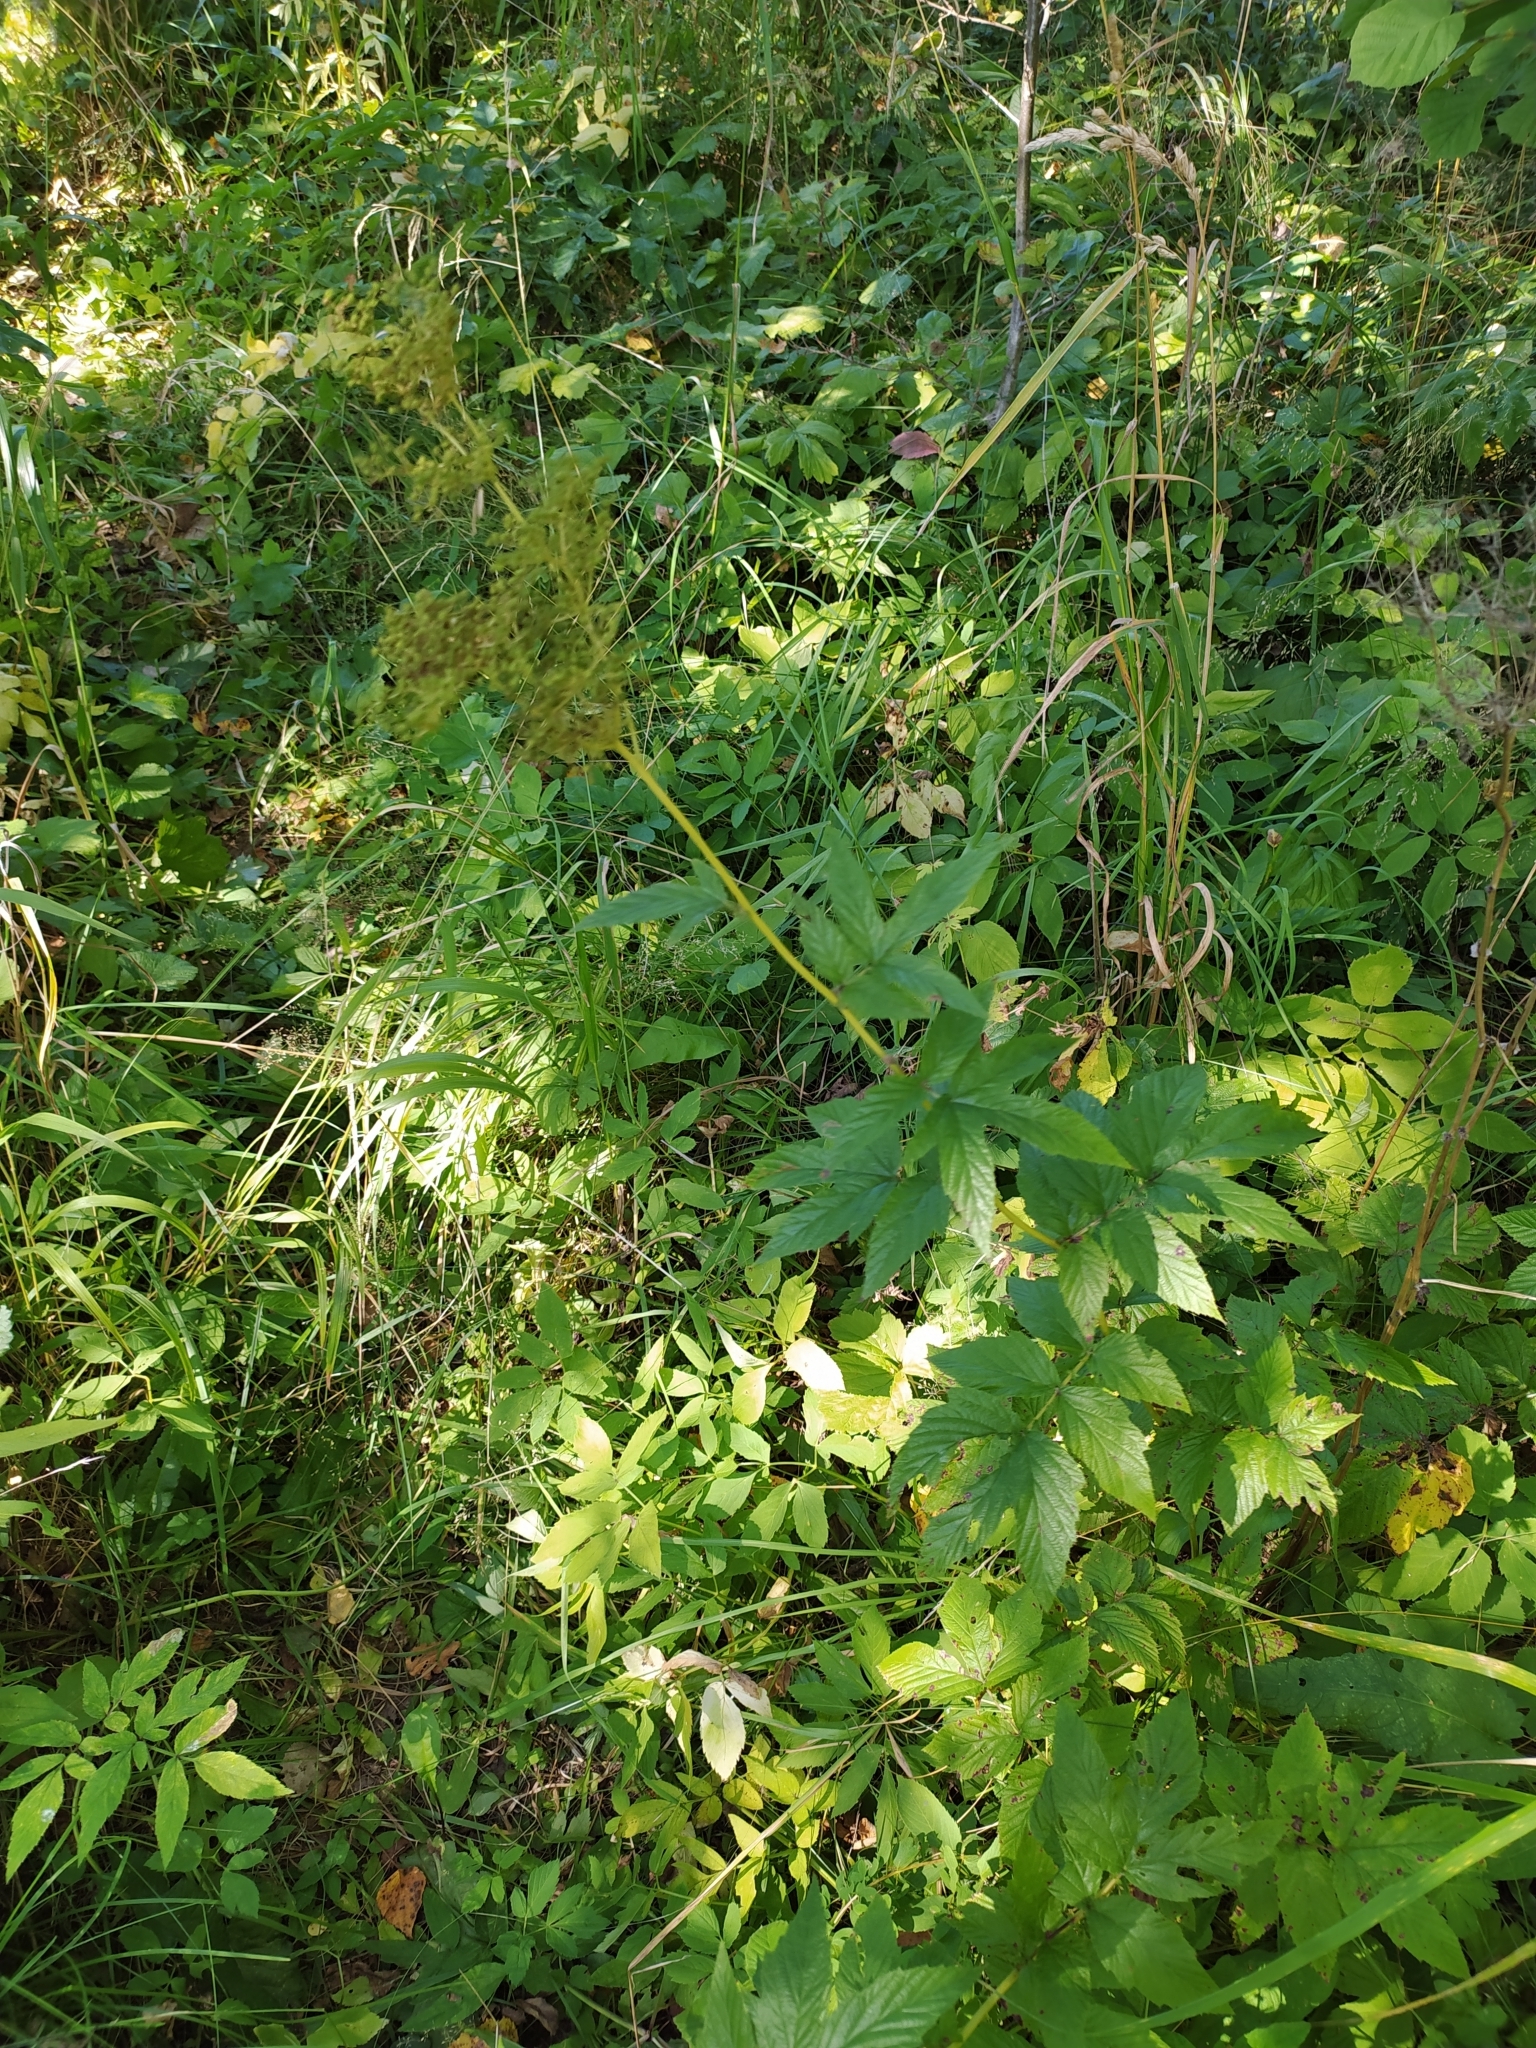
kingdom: Plantae
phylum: Tracheophyta
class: Magnoliopsida
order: Rosales
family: Rosaceae
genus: Filipendula
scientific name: Filipendula ulmaria
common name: Meadowsweet
